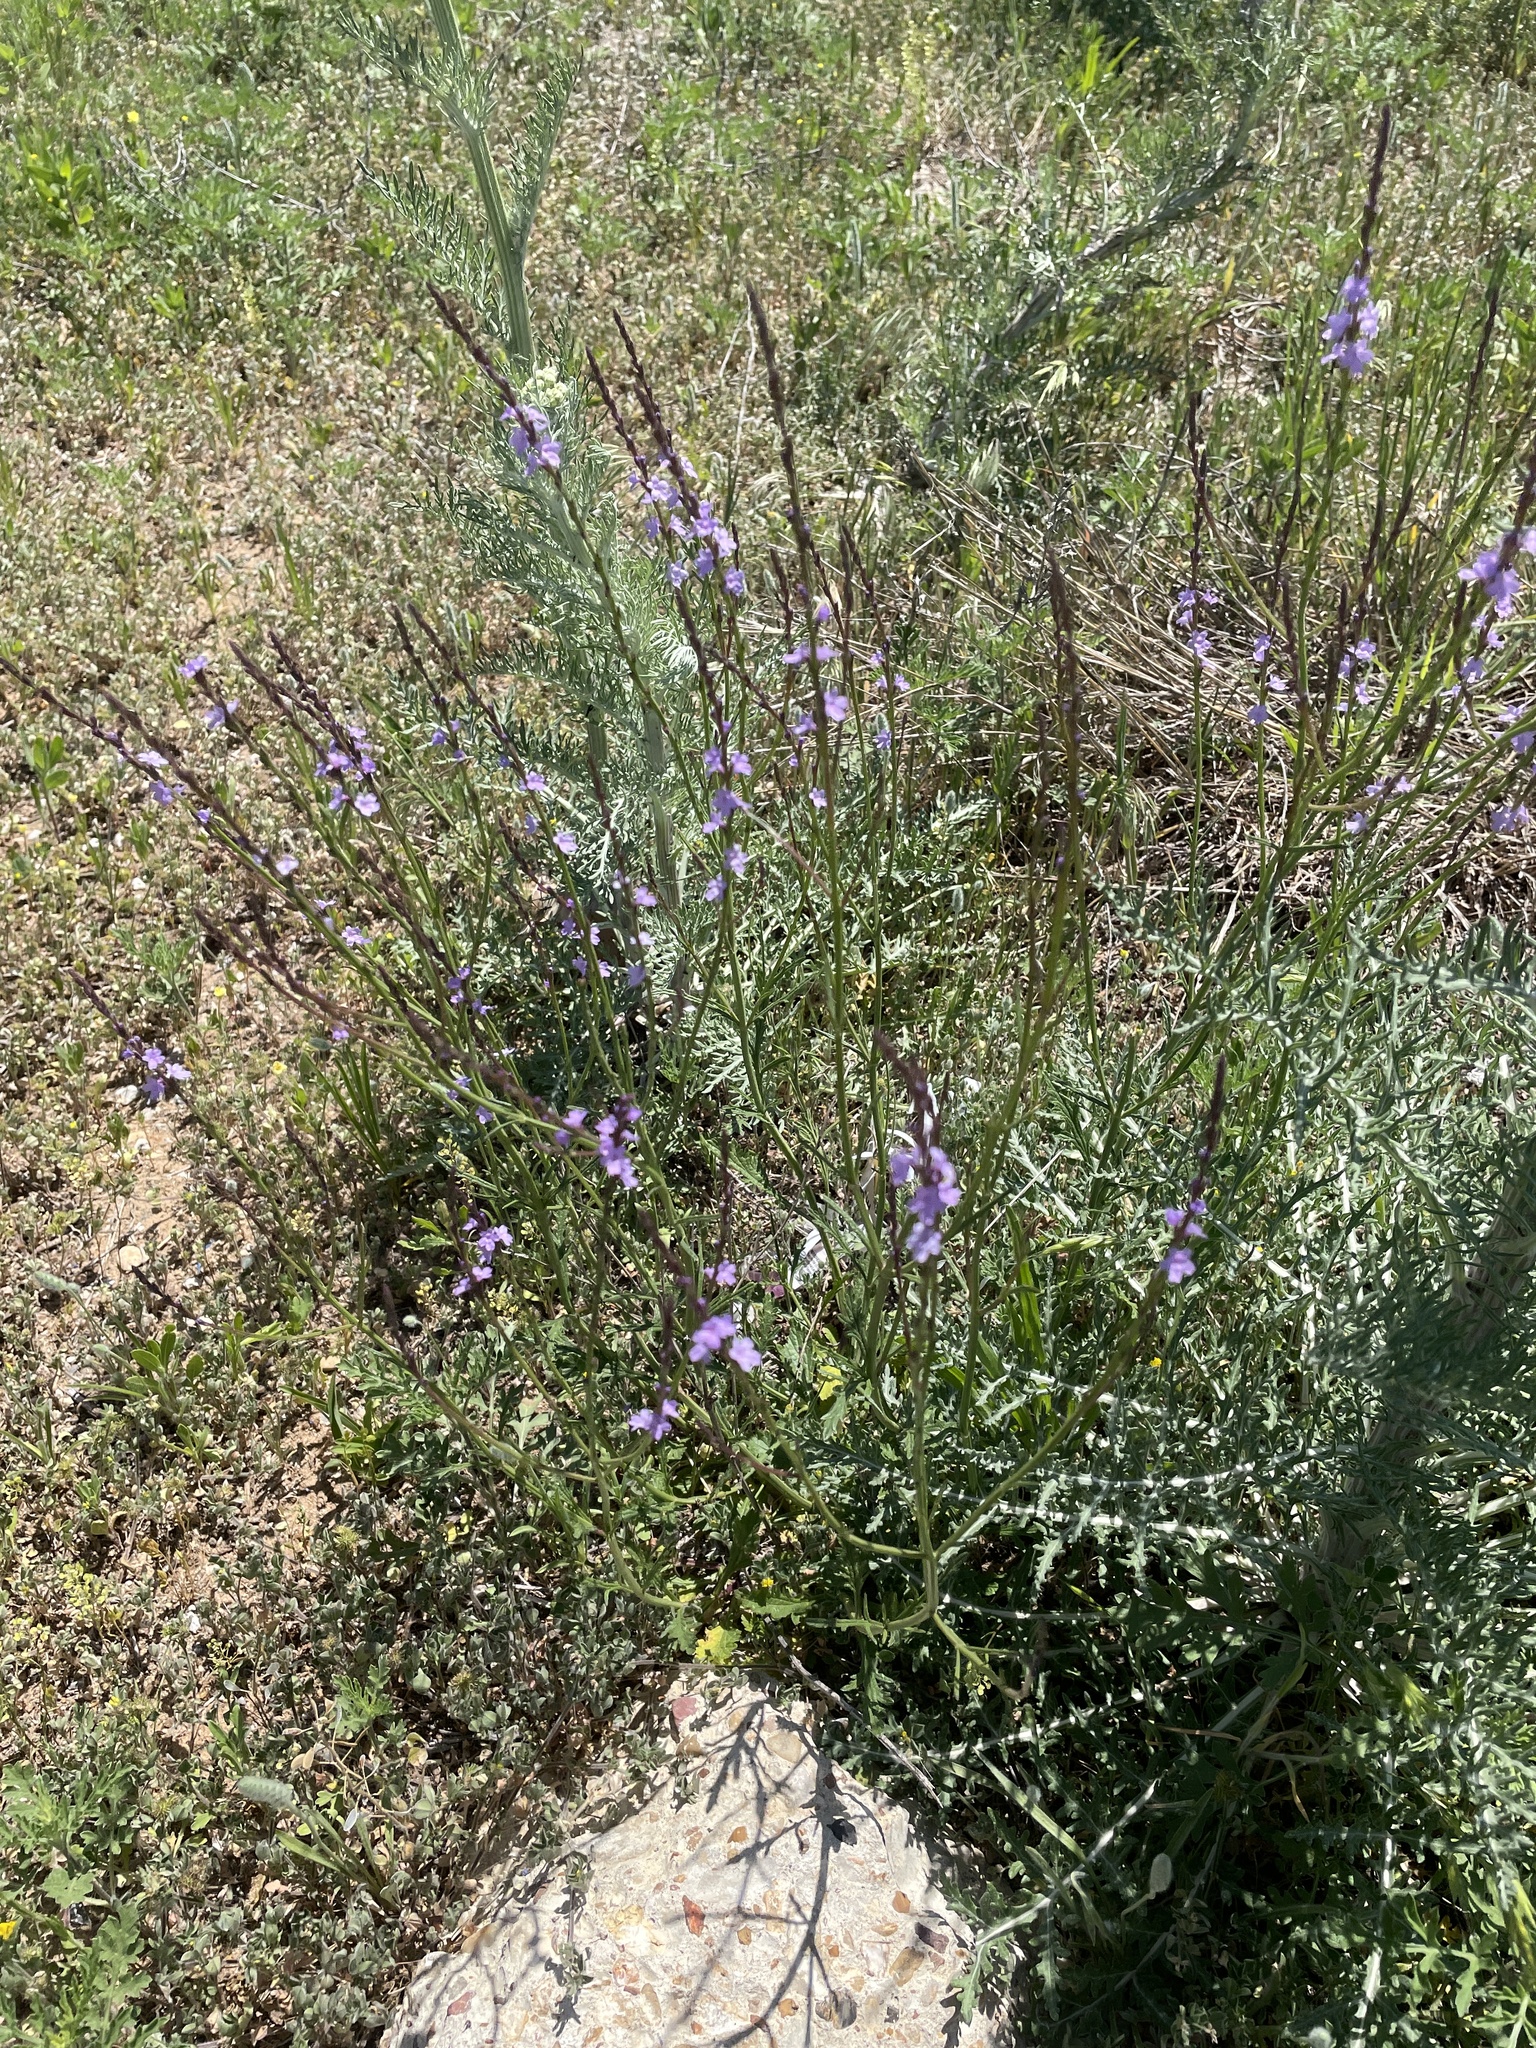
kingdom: Plantae
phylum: Tracheophyta
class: Magnoliopsida
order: Lamiales
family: Verbenaceae
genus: Verbena
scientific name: Verbena halei
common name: Texas vervain
